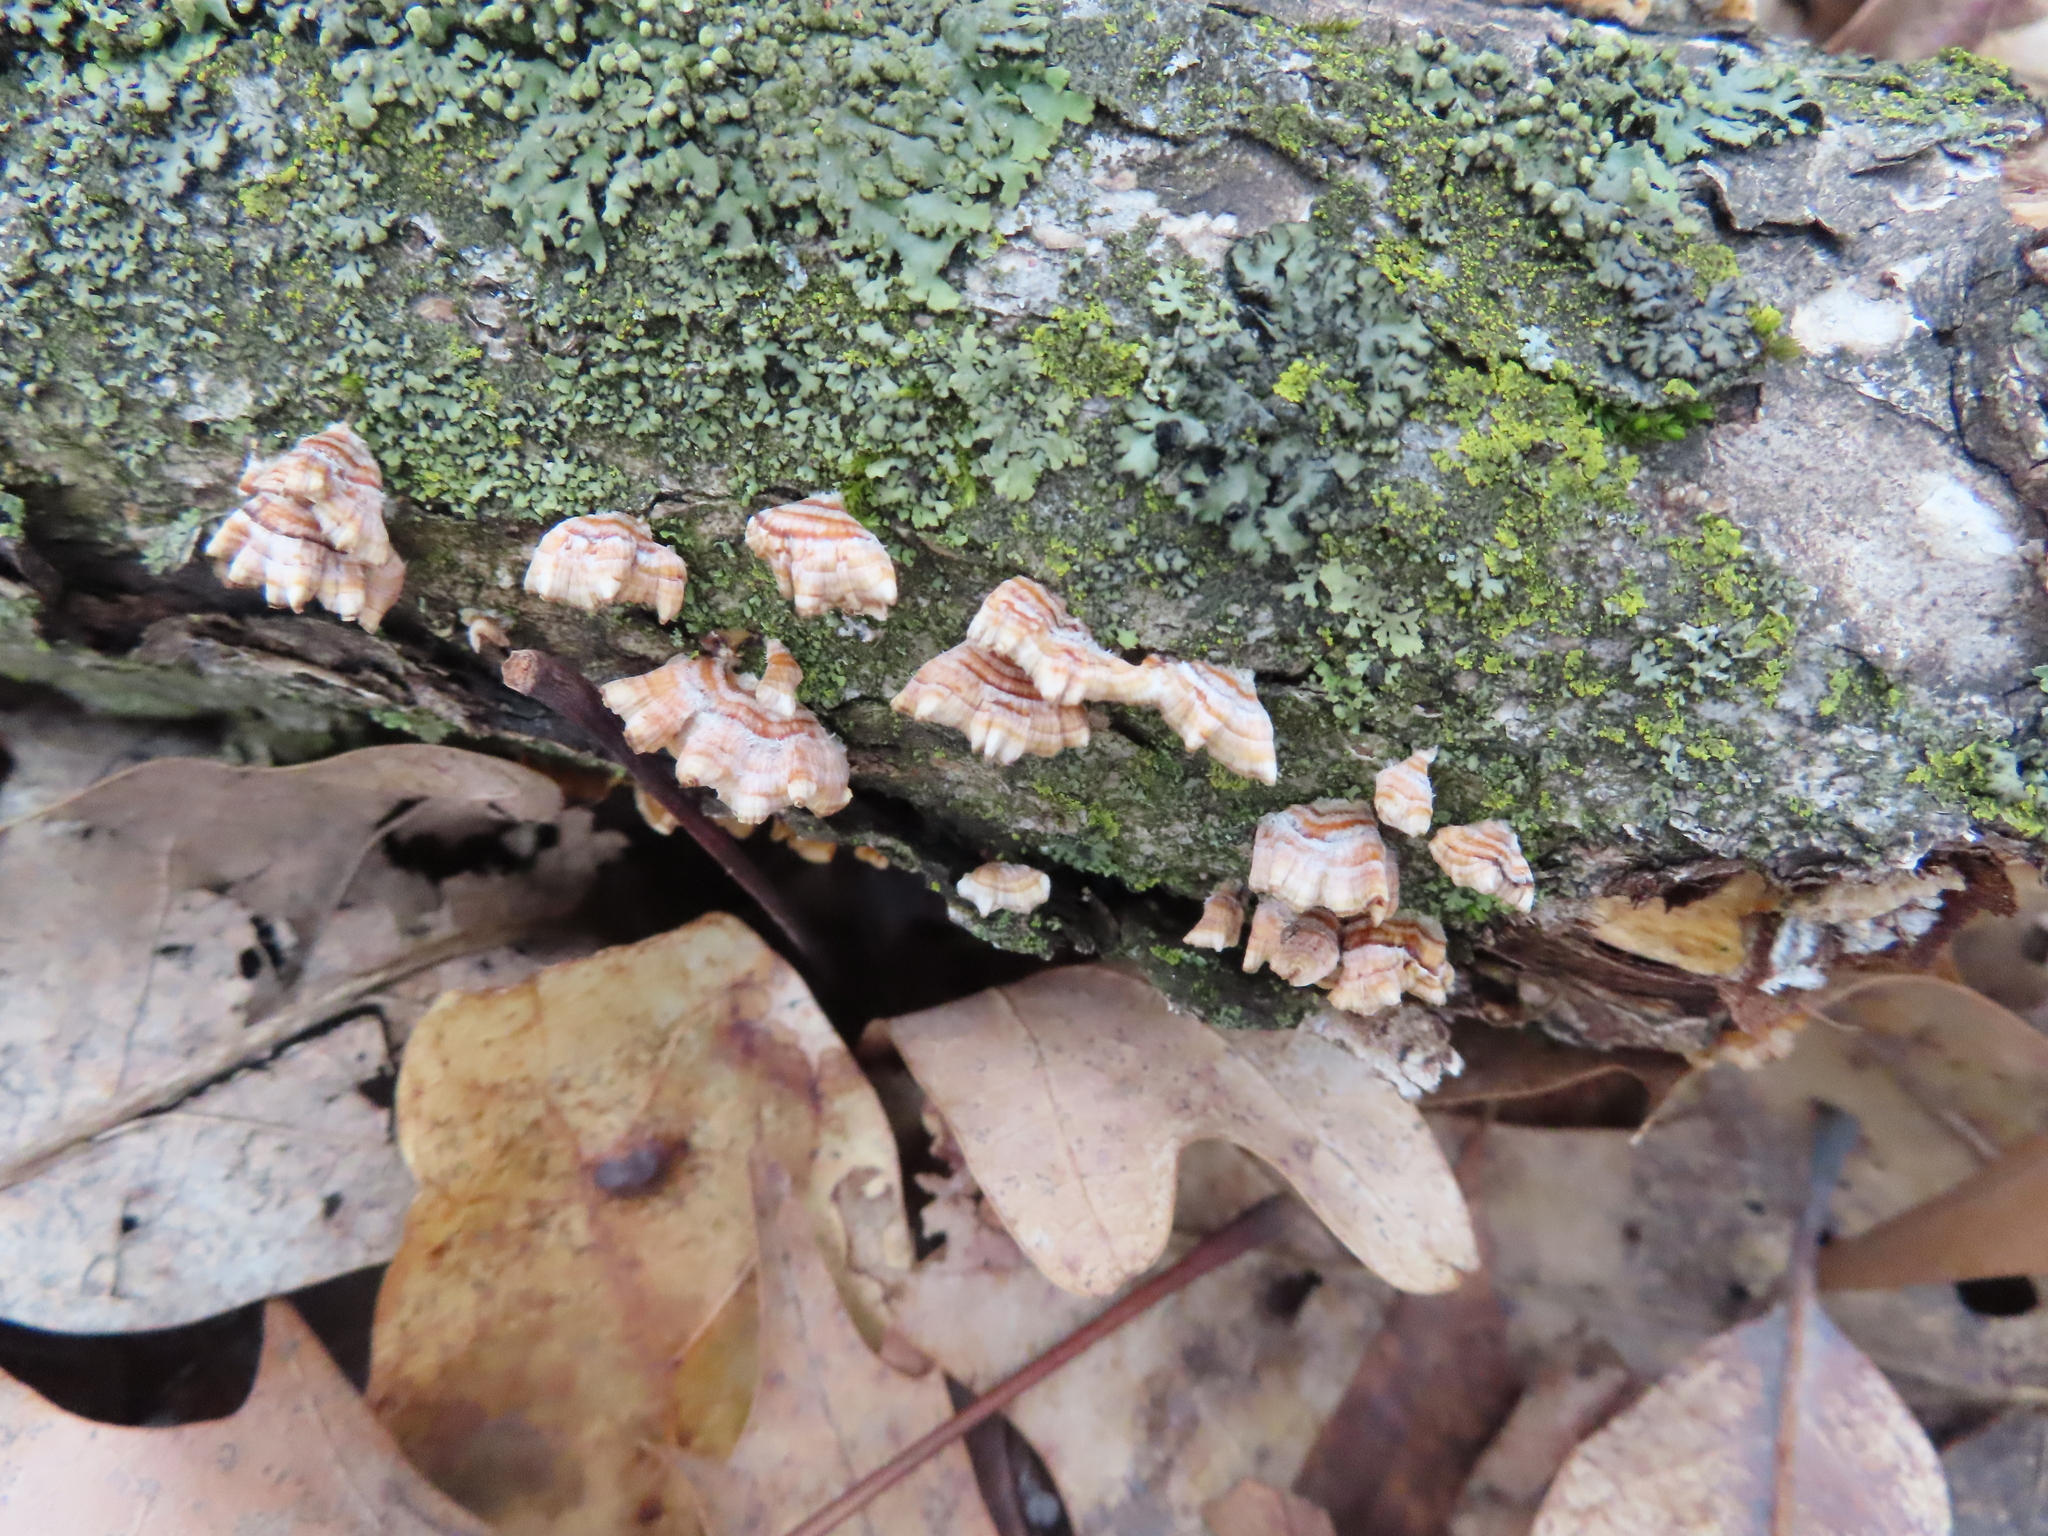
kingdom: Fungi
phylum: Basidiomycota
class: Agaricomycetes
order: Russulales
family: Stereaceae
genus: Stereum
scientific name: Stereum complicatum
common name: Crowded parchment
